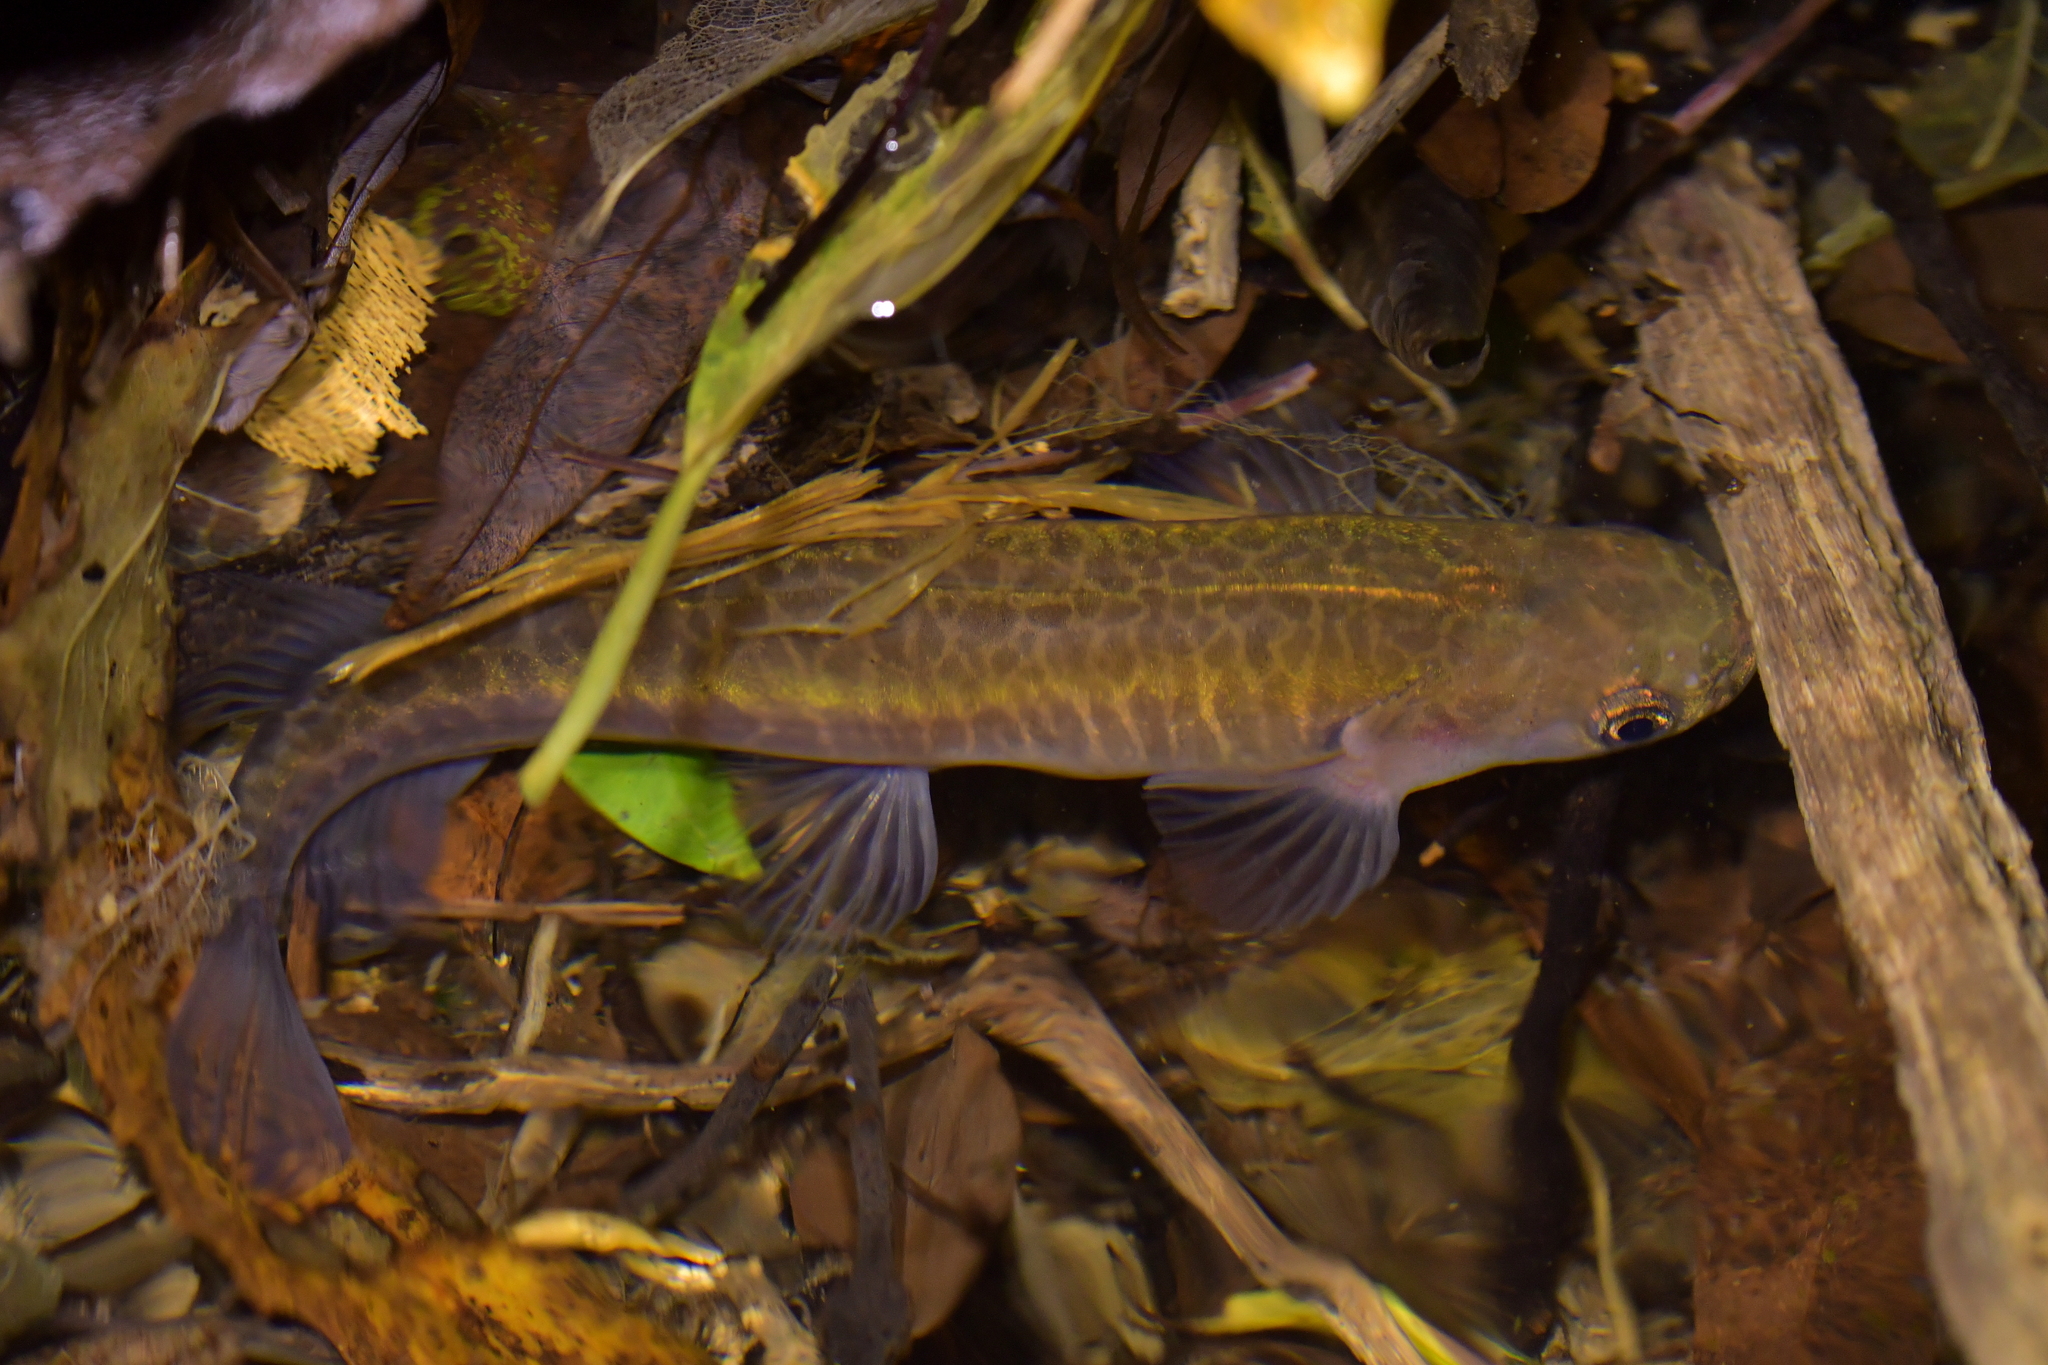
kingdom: Animalia
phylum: Chordata
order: Osmeriformes
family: Galaxiidae
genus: Galaxias
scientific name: Galaxias fasciatus
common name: Banded kokopu
